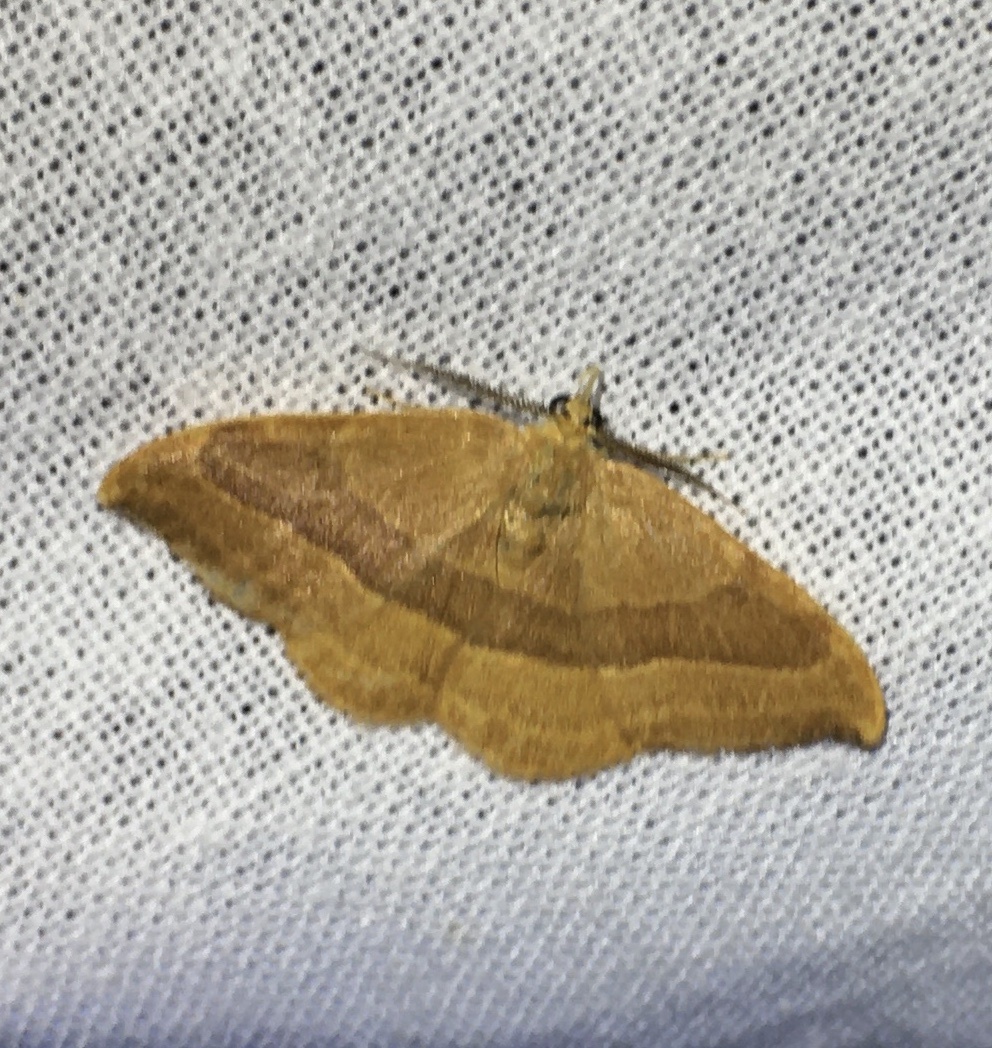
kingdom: Animalia
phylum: Arthropoda
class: Insecta
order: Lepidoptera
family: Drepanidae
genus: Watsonalla
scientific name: Watsonalla cultraria
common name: Barred hook-tip
